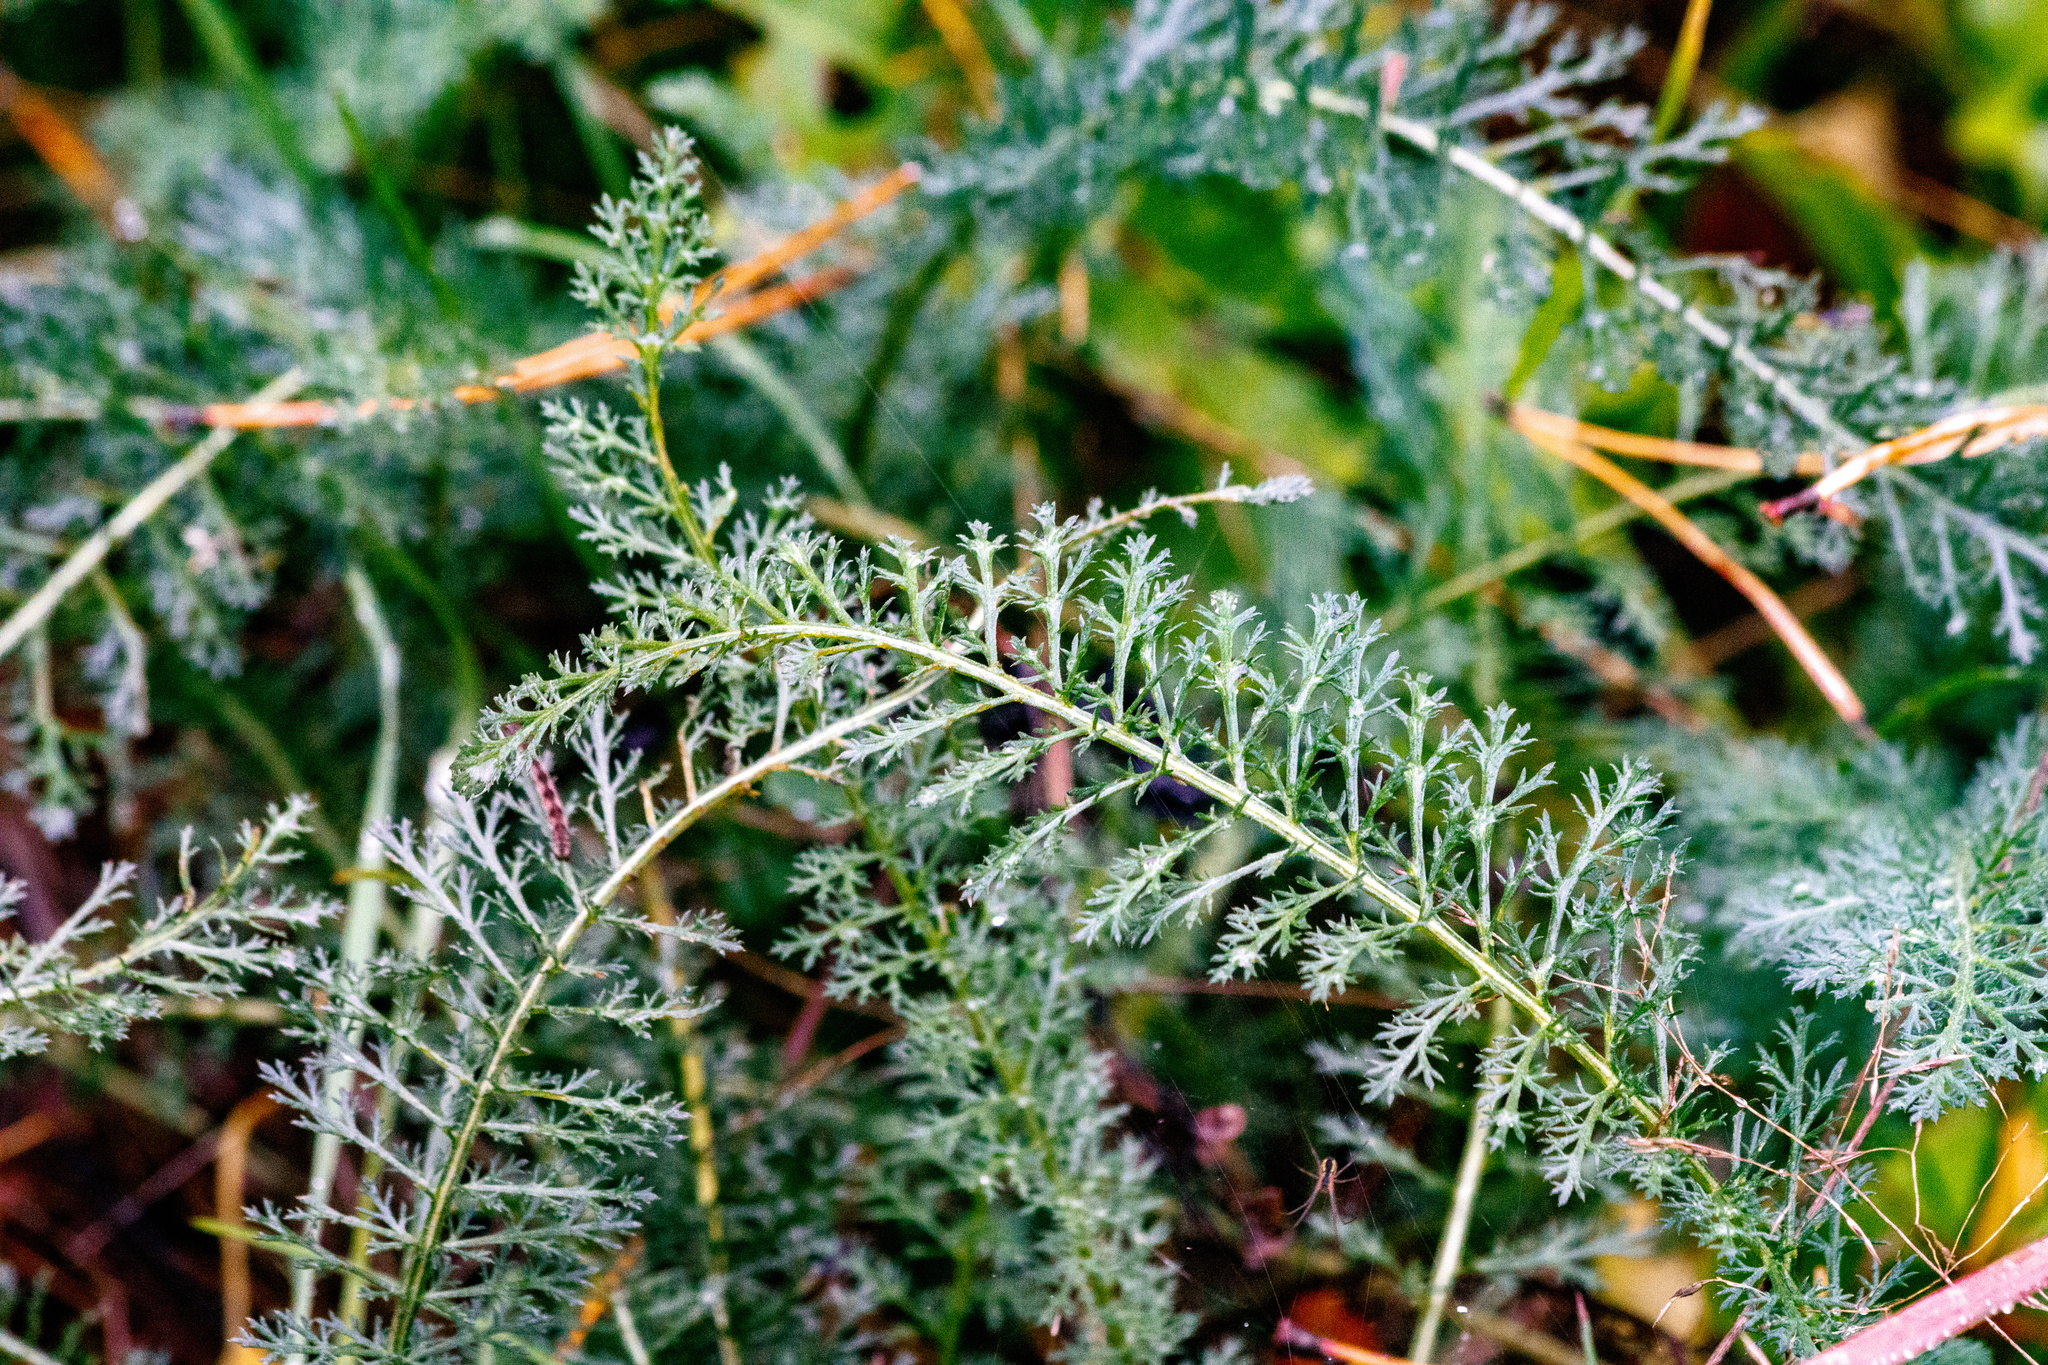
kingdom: Plantae
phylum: Tracheophyta
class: Magnoliopsida
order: Asterales
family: Asteraceae
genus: Achillea
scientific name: Achillea millefolium
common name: Yarrow
